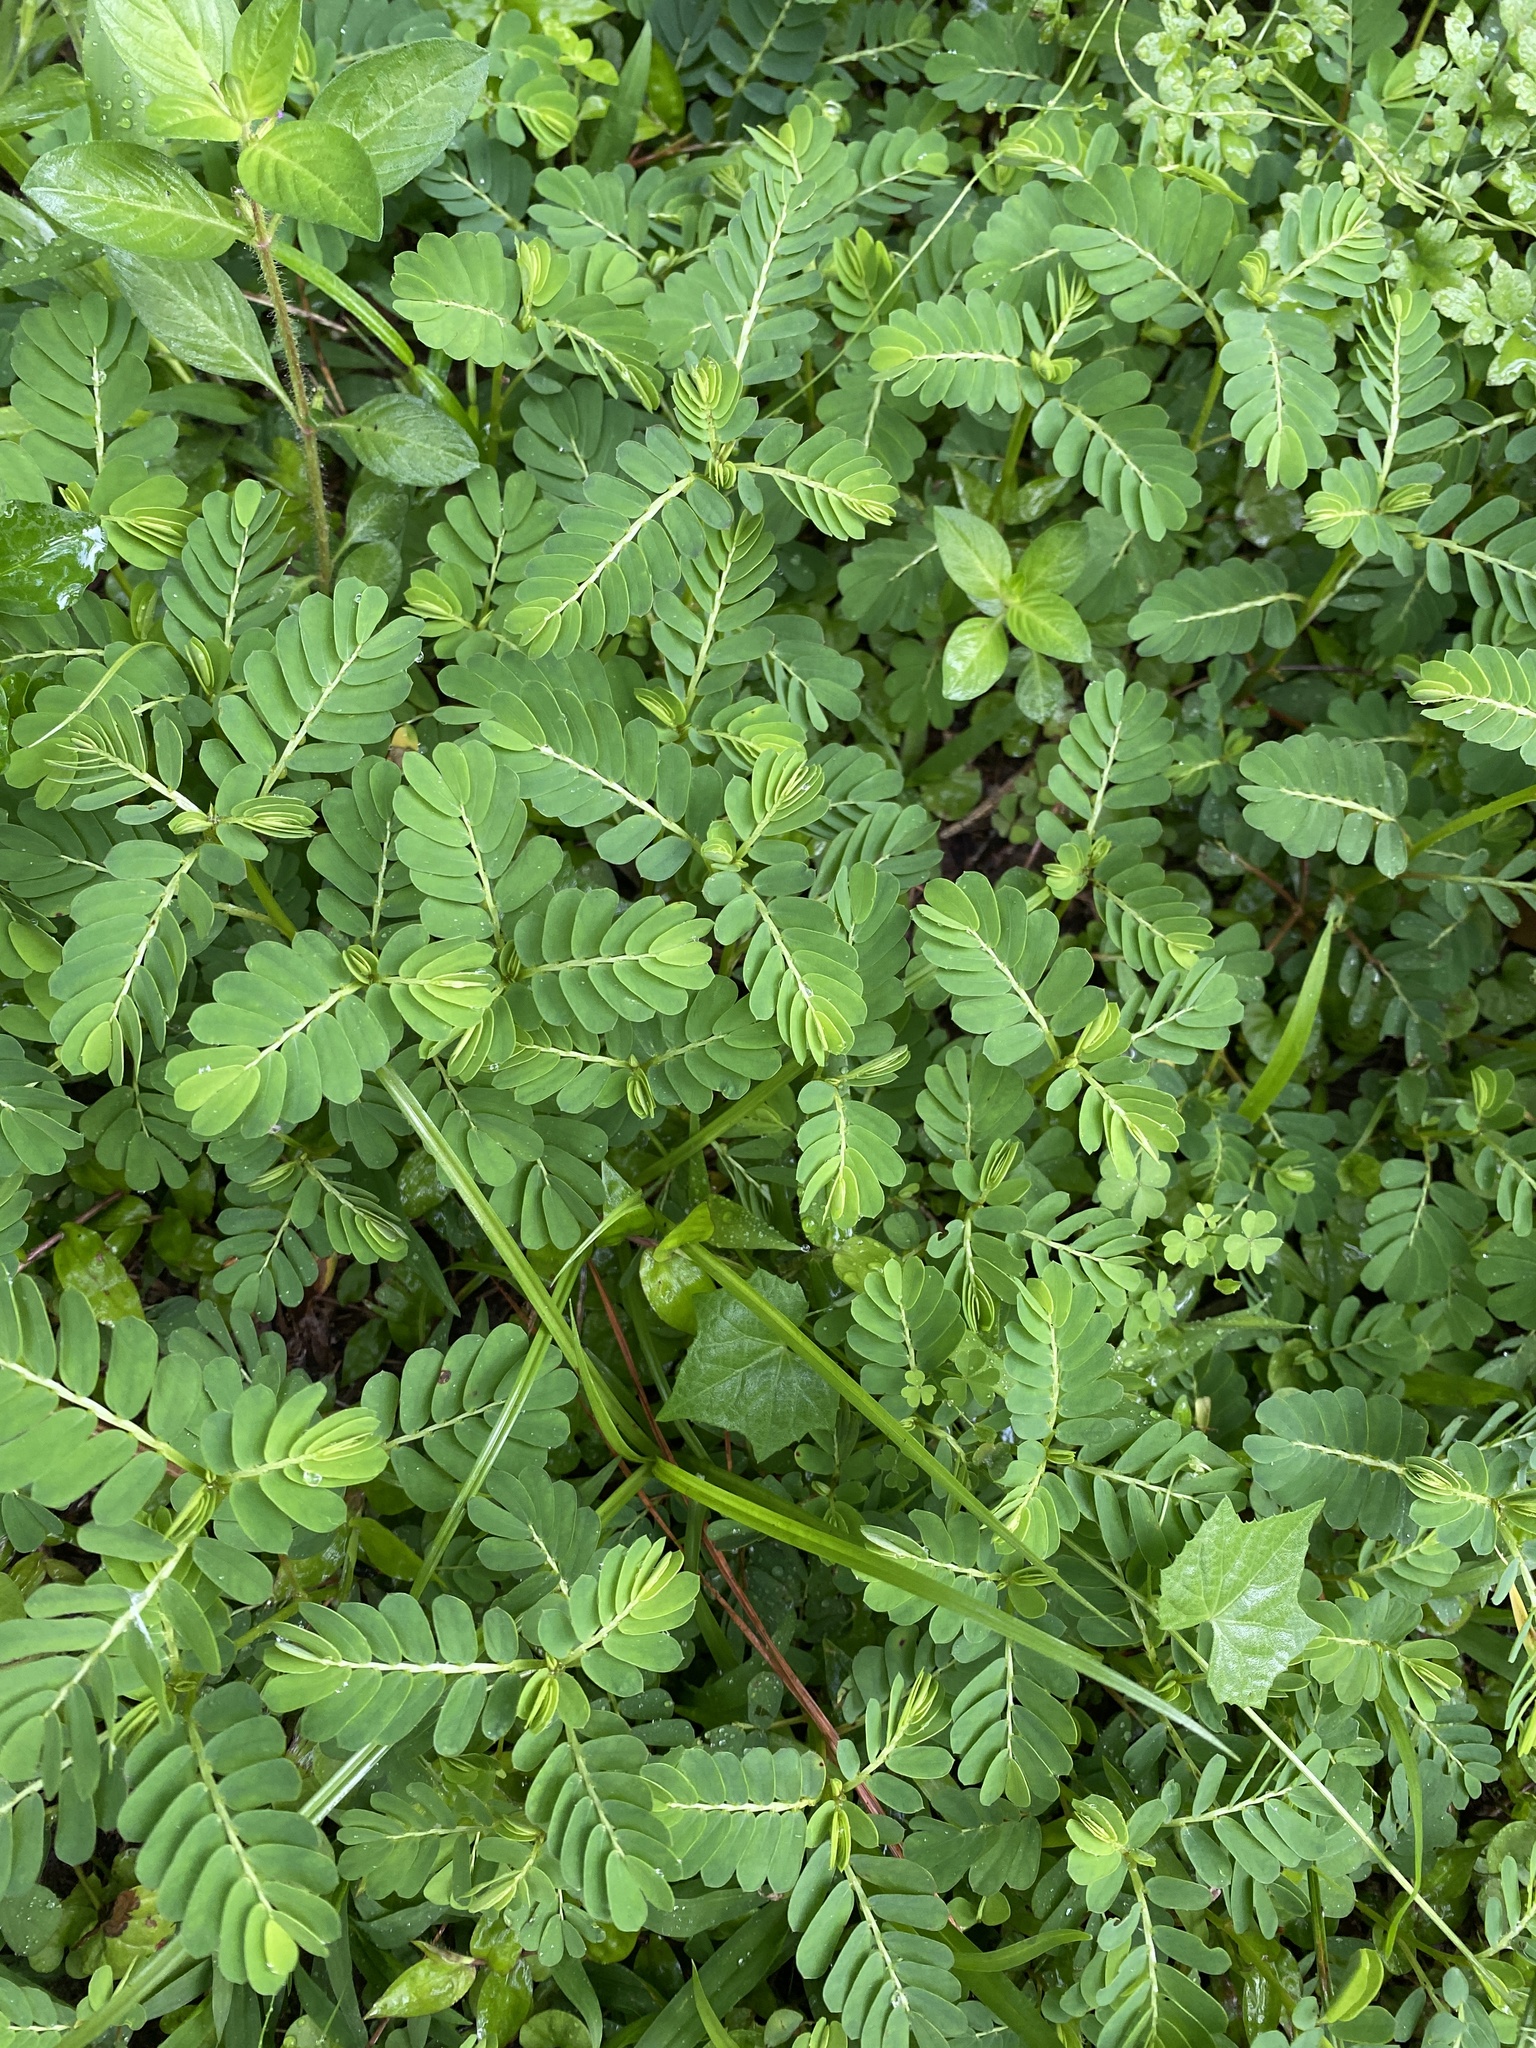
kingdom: Plantae
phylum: Tracheophyta
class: Magnoliopsida
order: Malpighiales
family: Phyllanthaceae
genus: Phyllanthus
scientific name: Phyllanthus urinaria
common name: Chamber bitter
